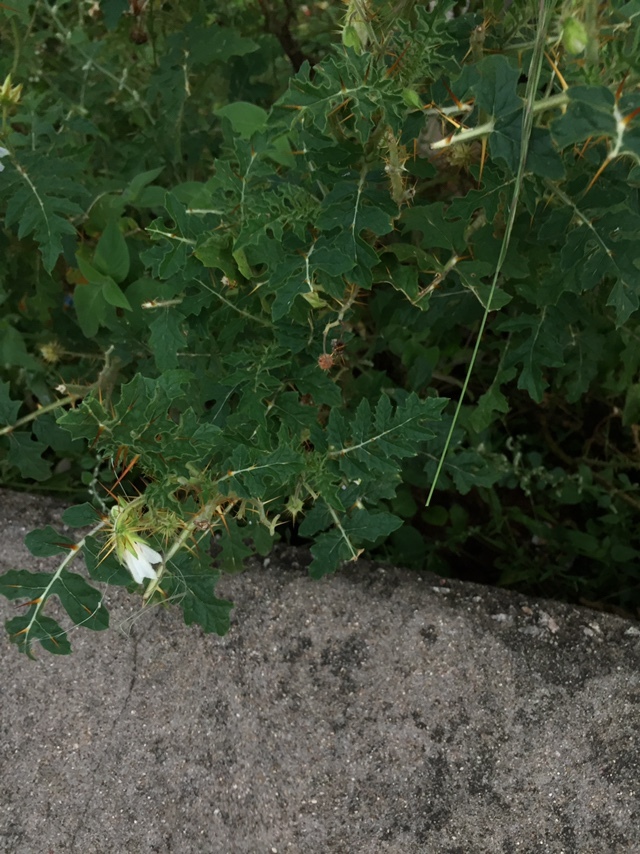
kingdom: Plantae
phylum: Tracheophyta
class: Magnoliopsida
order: Solanales
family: Solanaceae
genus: Solanum
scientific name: Solanum sisymbriifolium
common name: Red buffalo-bur
